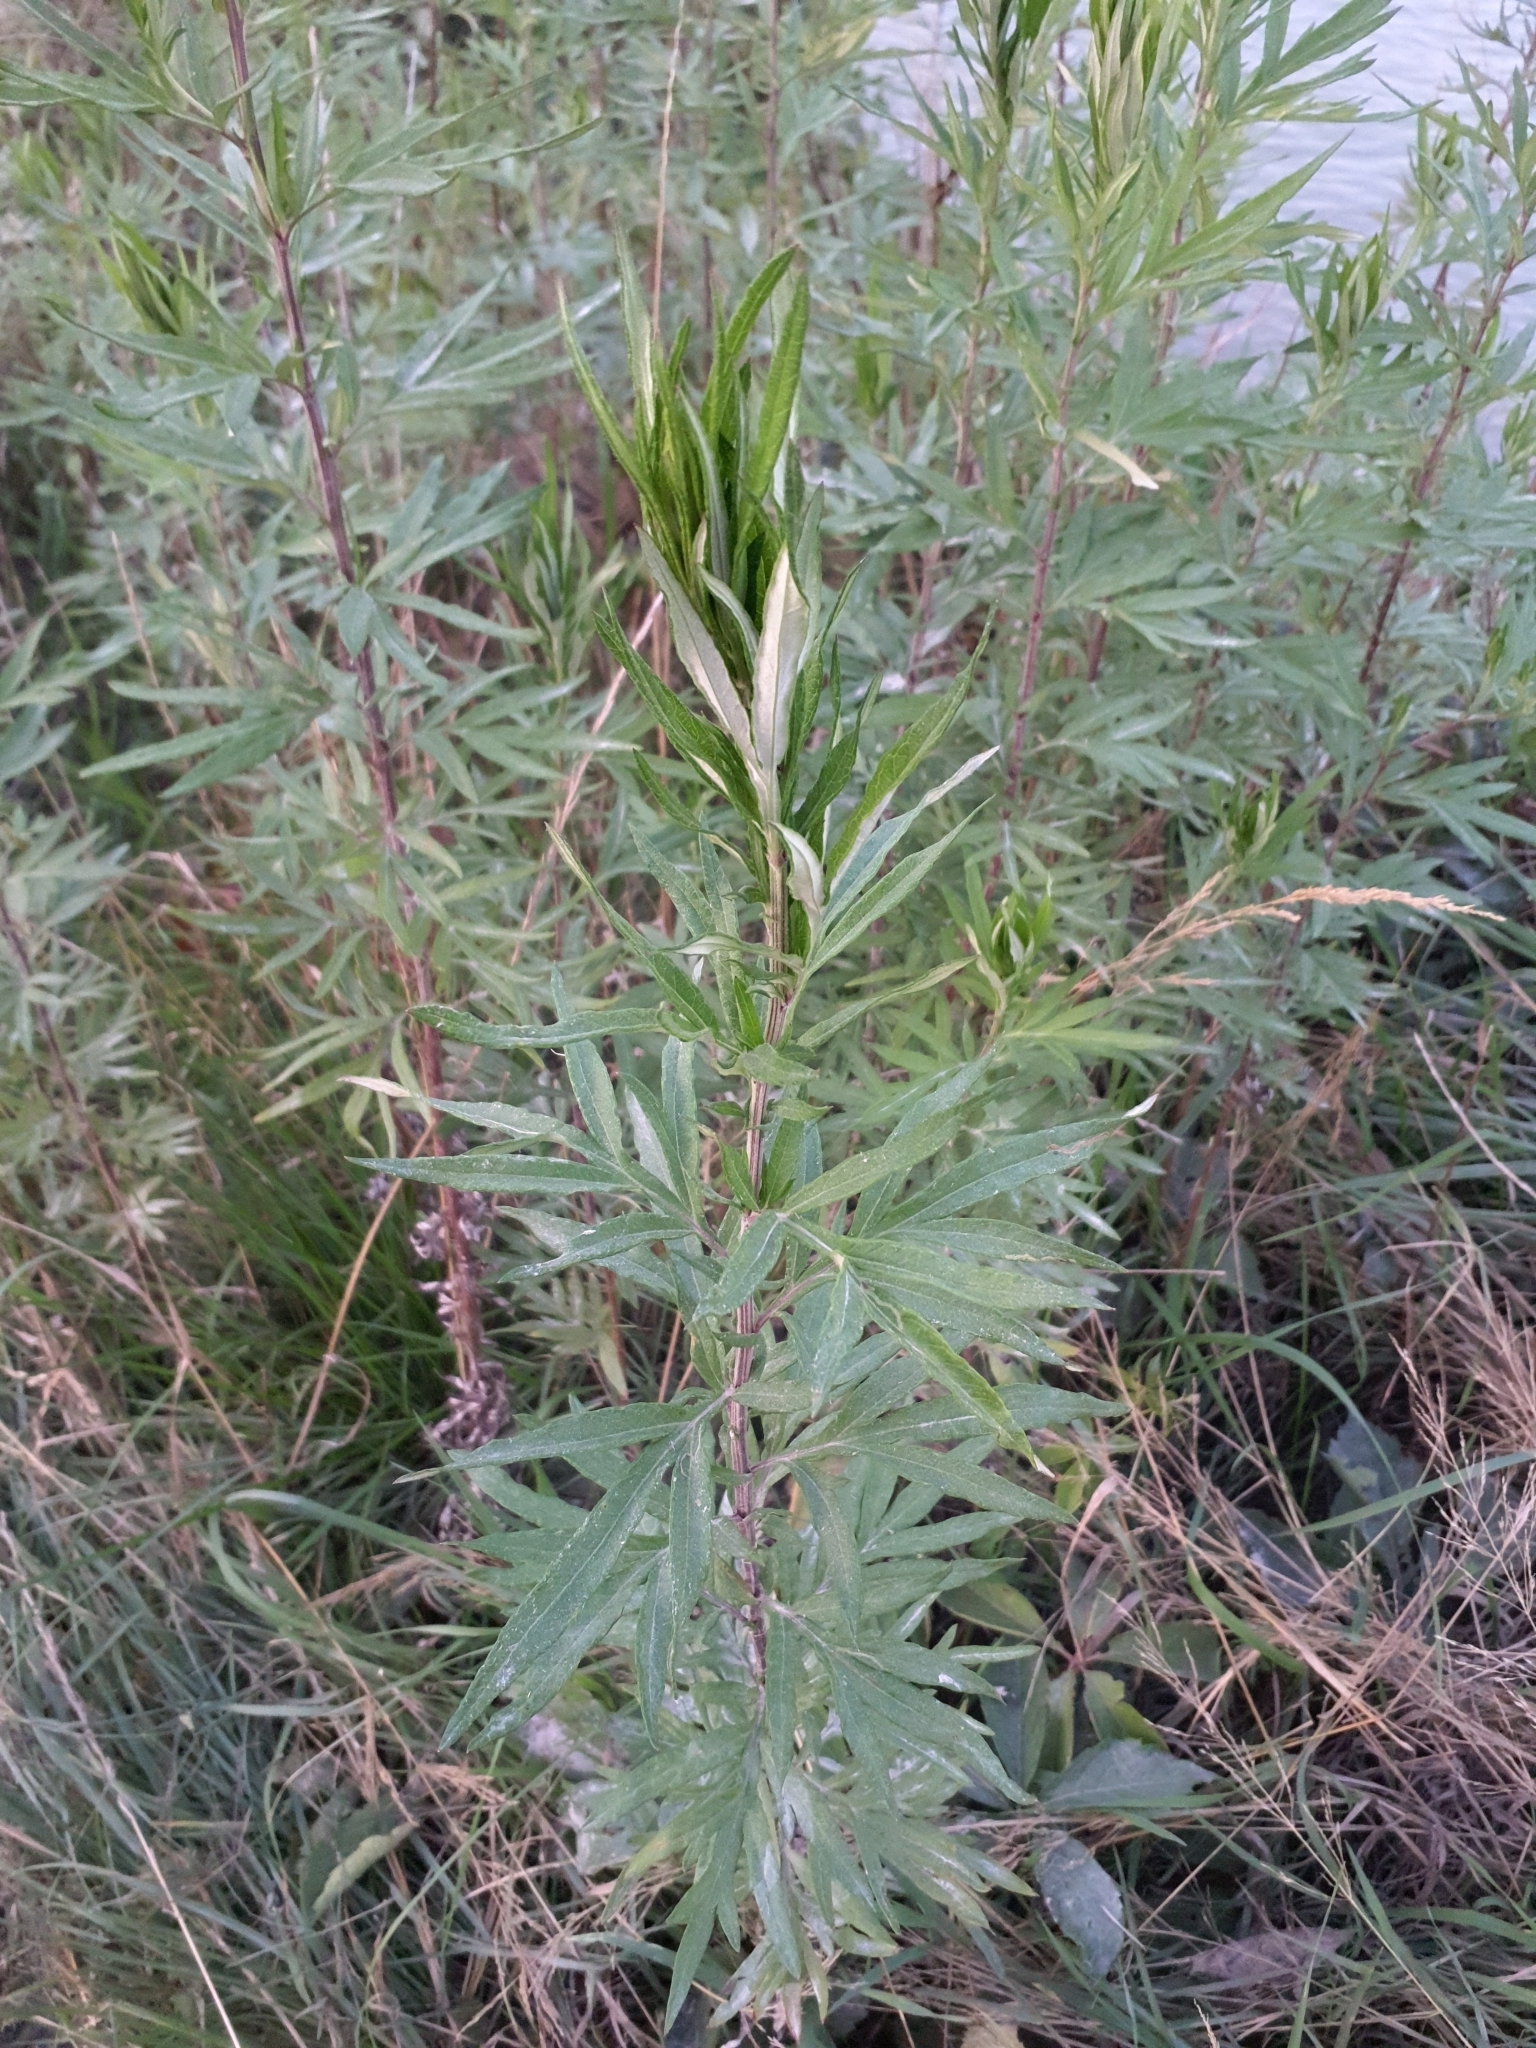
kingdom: Plantae
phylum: Tracheophyta
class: Magnoliopsida
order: Asterales
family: Asteraceae
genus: Artemisia
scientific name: Artemisia verlotiorum
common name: Chinese mugwort
